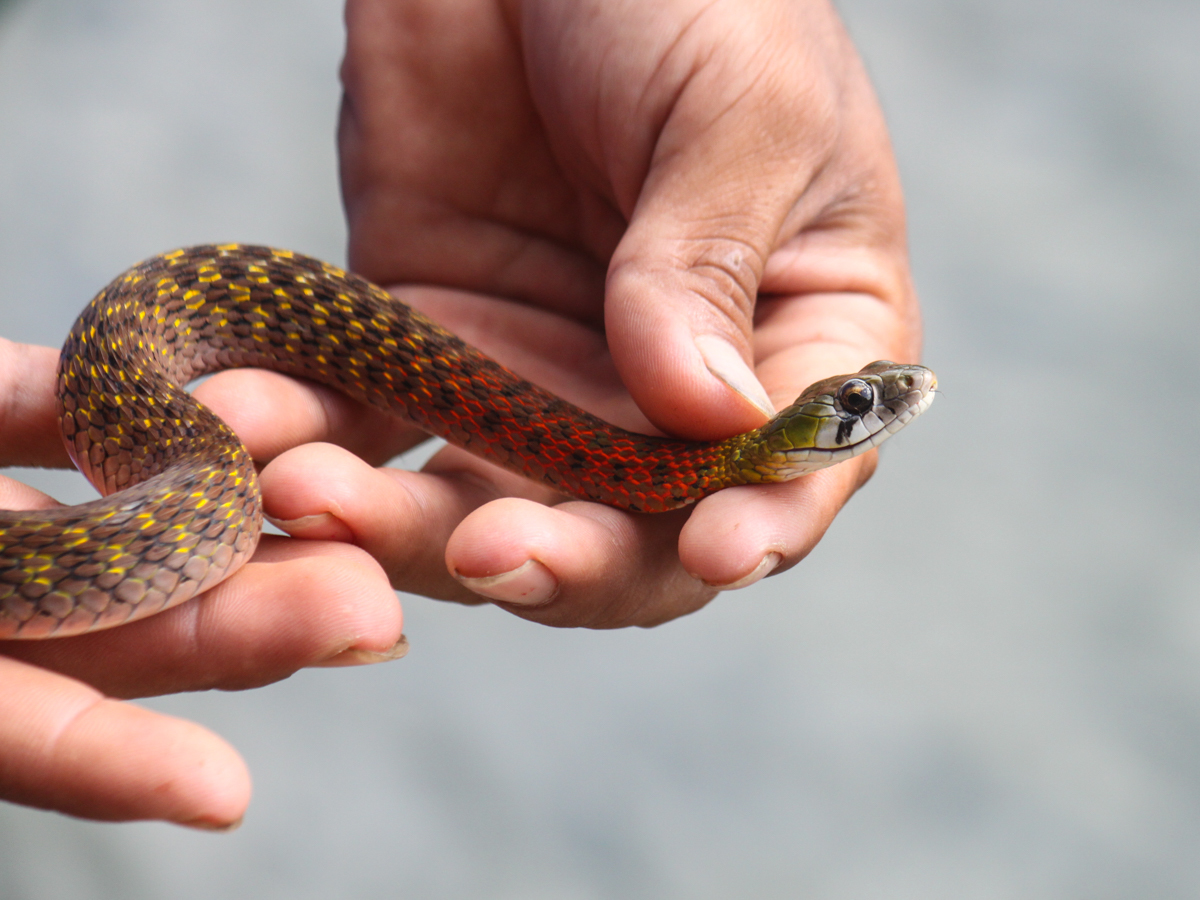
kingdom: Animalia
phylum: Chordata
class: Squamata
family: Colubridae
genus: Rhabdophis
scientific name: Rhabdophis
